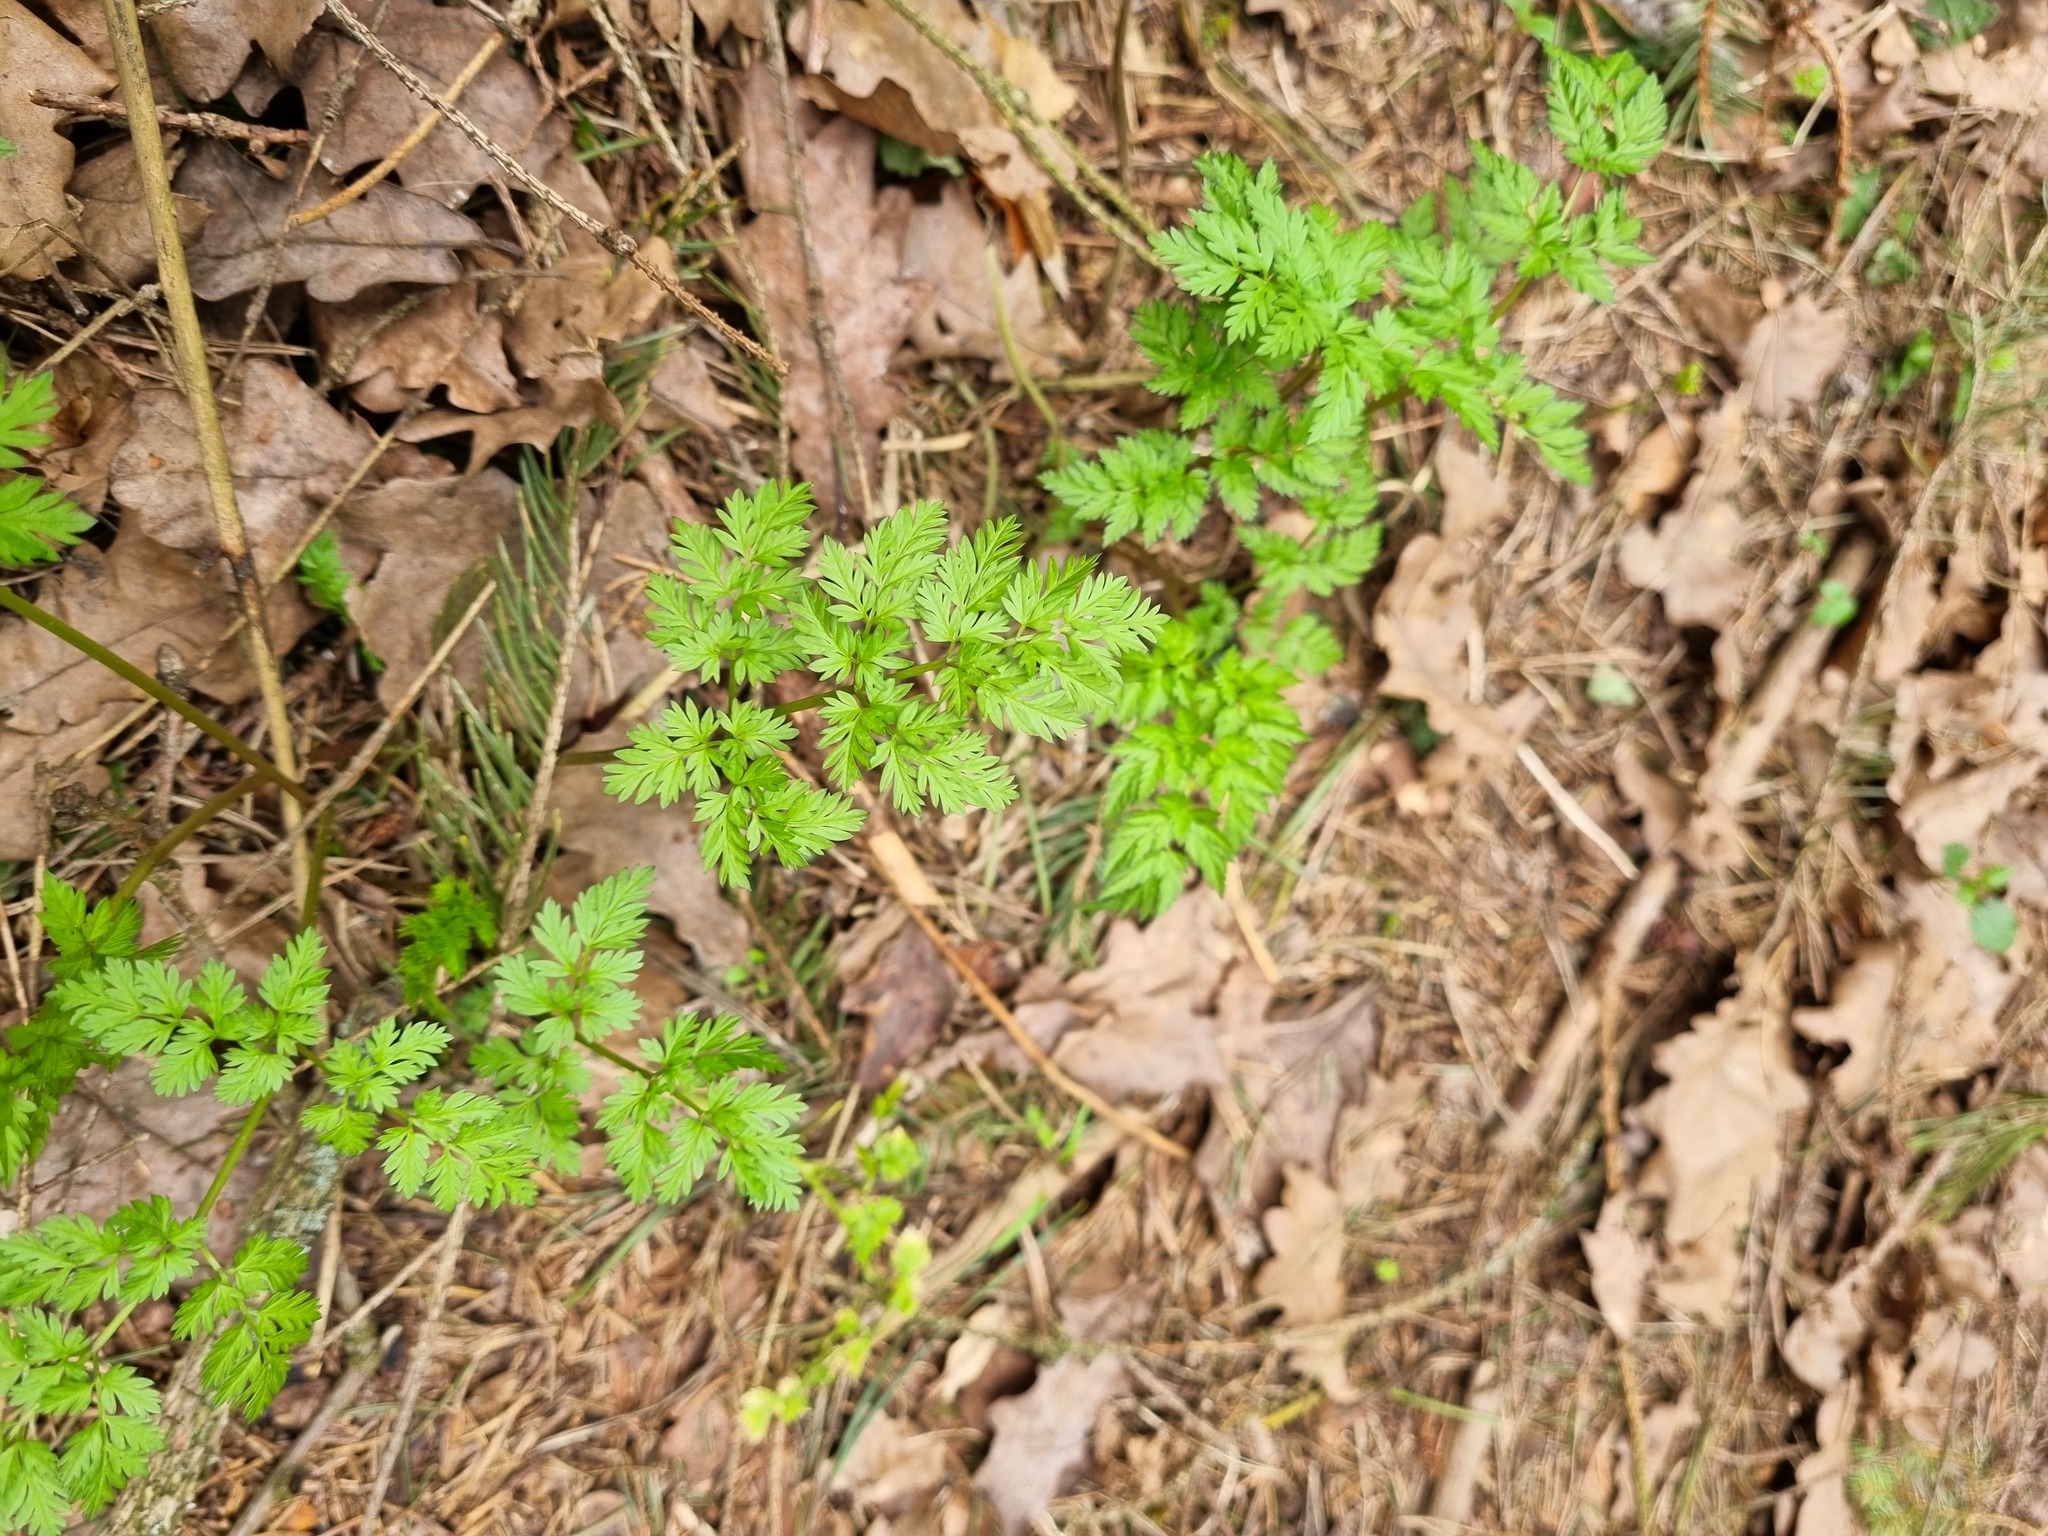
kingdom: Plantae
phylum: Tracheophyta
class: Magnoliopsida
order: Apiales
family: Apiaceae
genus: Anthriscus
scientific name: Anthriscus sylvestris
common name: Cow parsley
